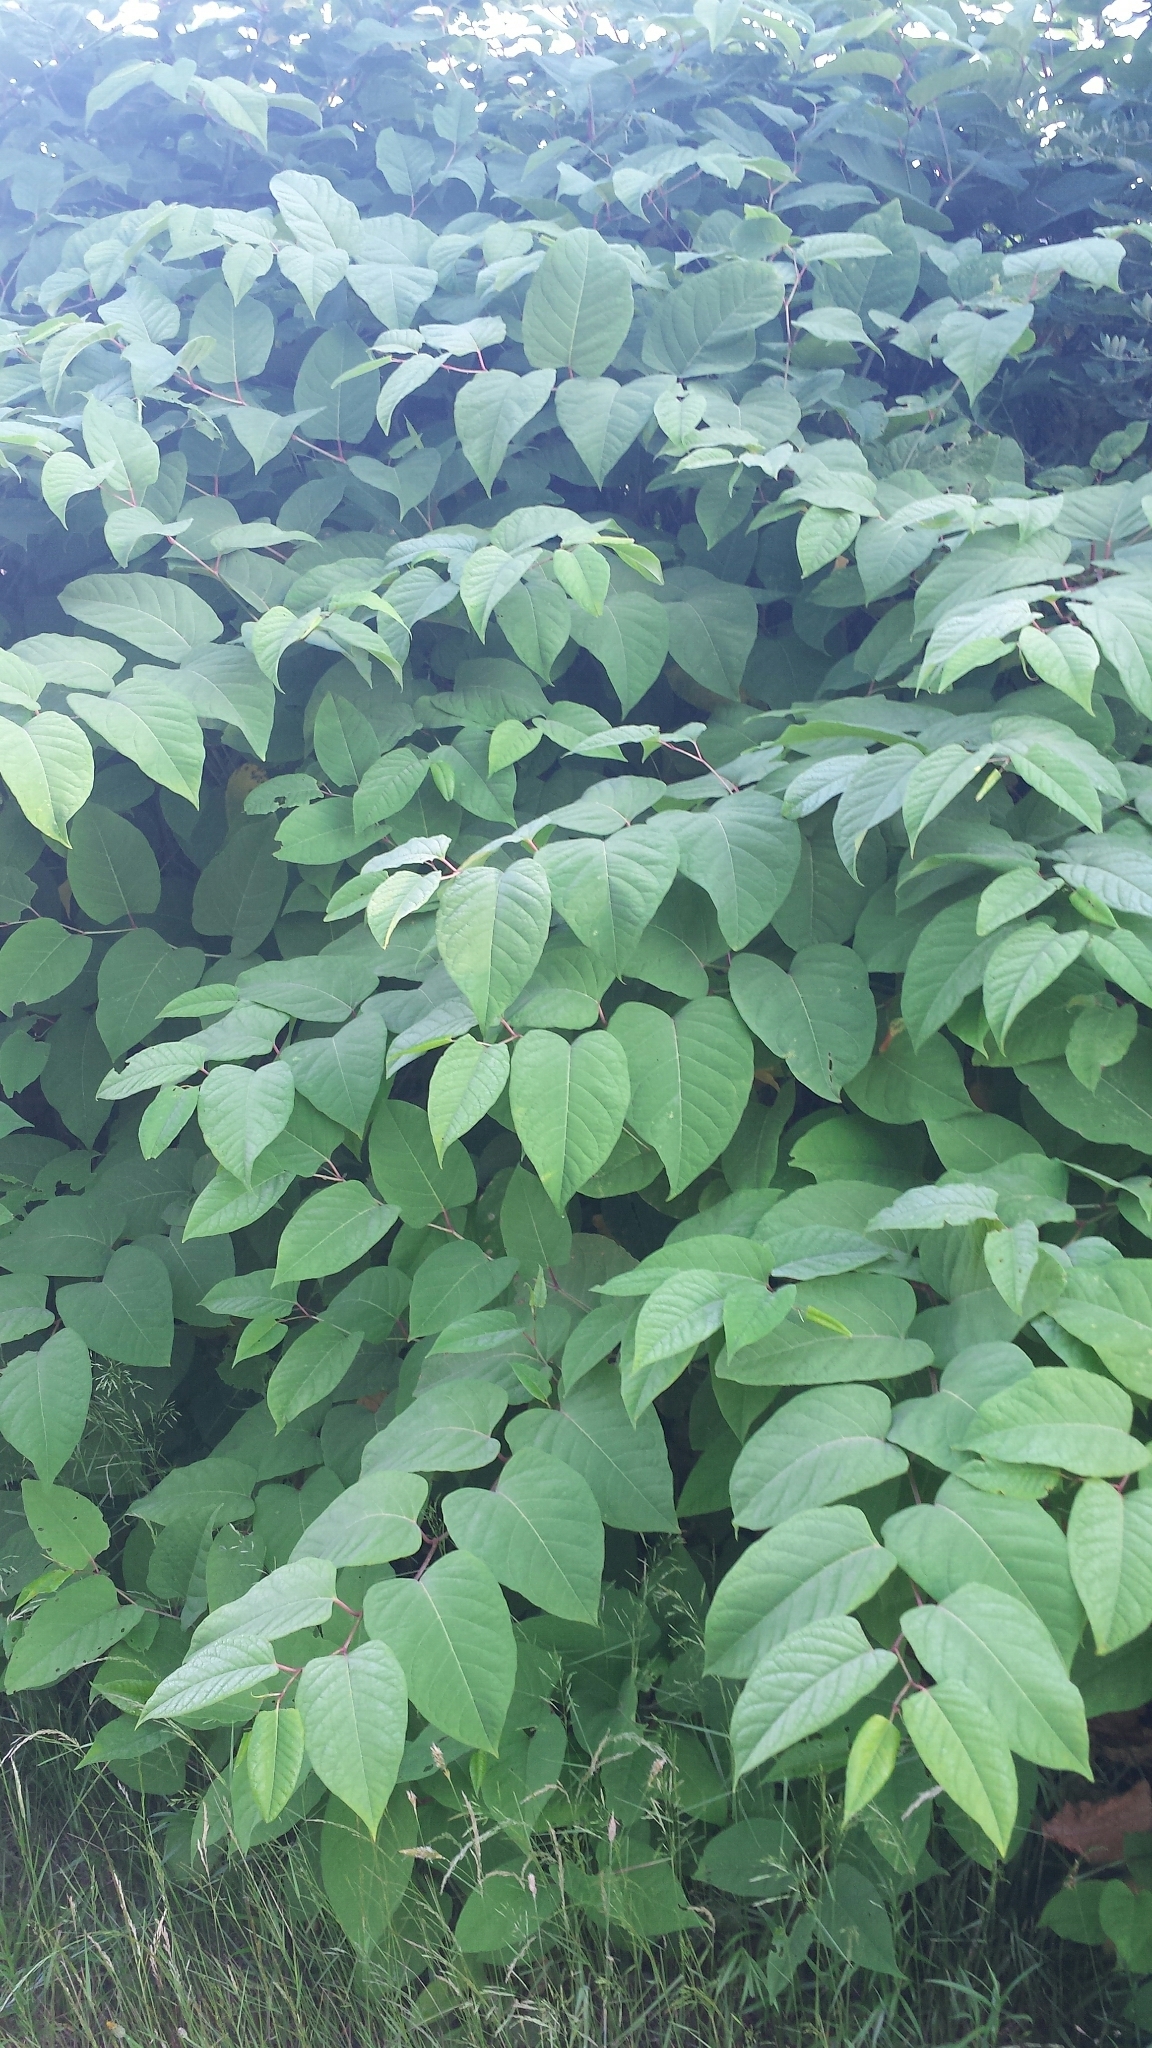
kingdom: Plantae
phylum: Tracheophyta
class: Magnoliopsida
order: Caryophyllales
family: Polygonaceae
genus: Reynoutria
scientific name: Reynoutria japonica
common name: Japanese knotweed
